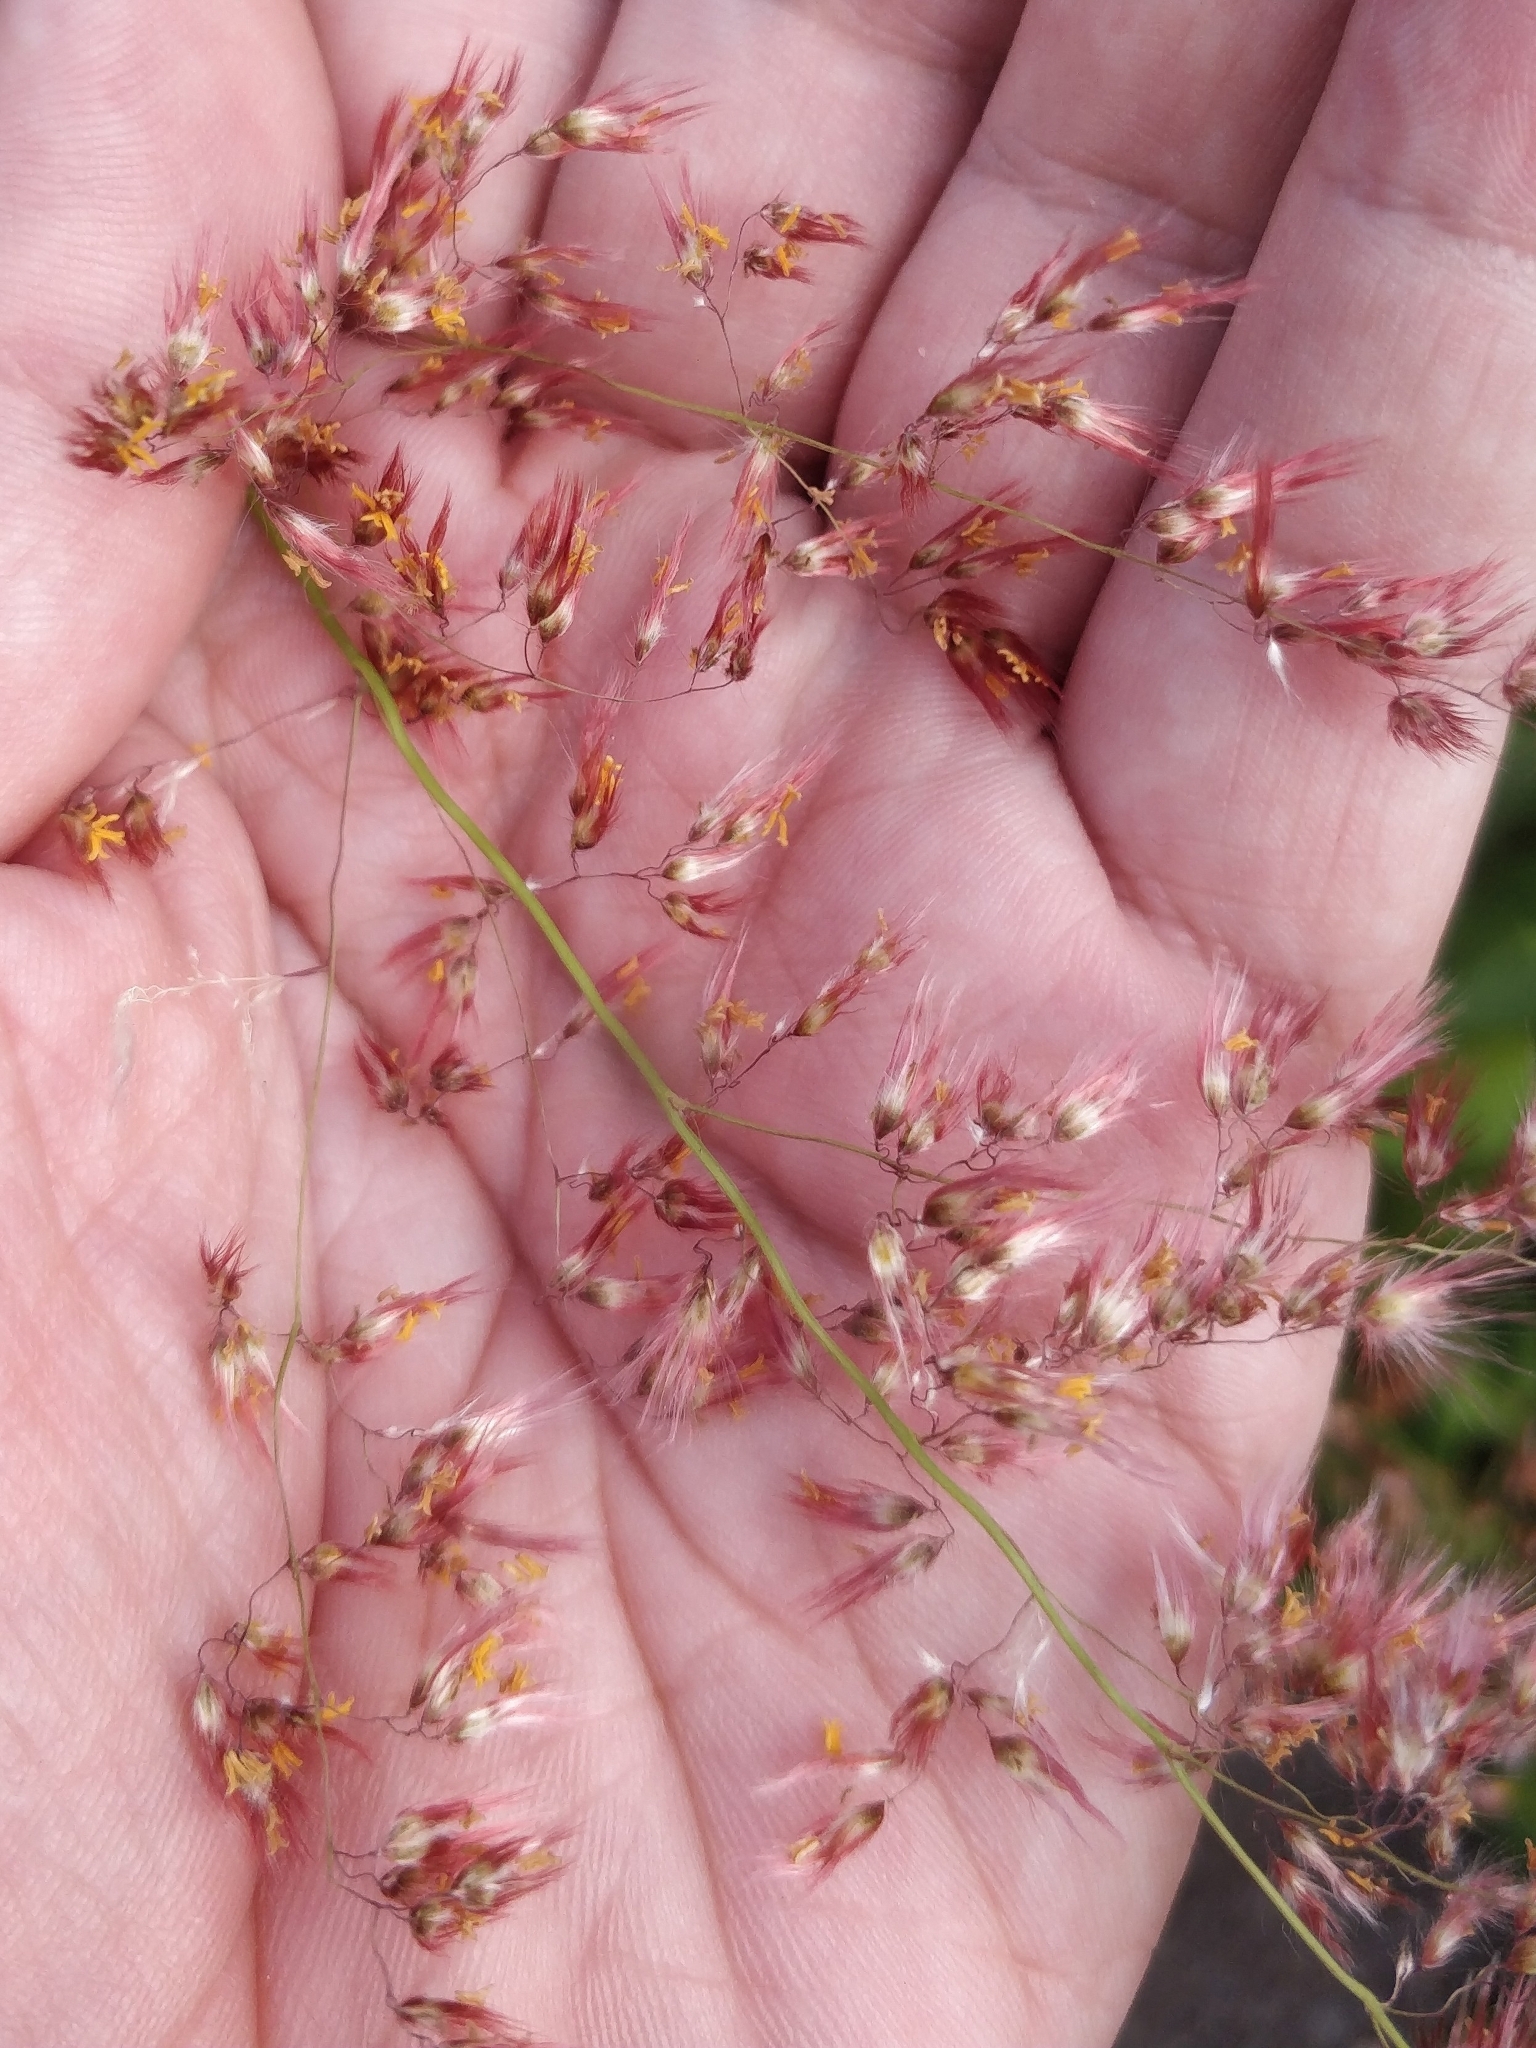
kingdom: Plantae
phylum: Tracheophyta
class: Liliopsida
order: Poales
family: Poaceae
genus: Melinis
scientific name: Melinis repens
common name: Rose natal grass
